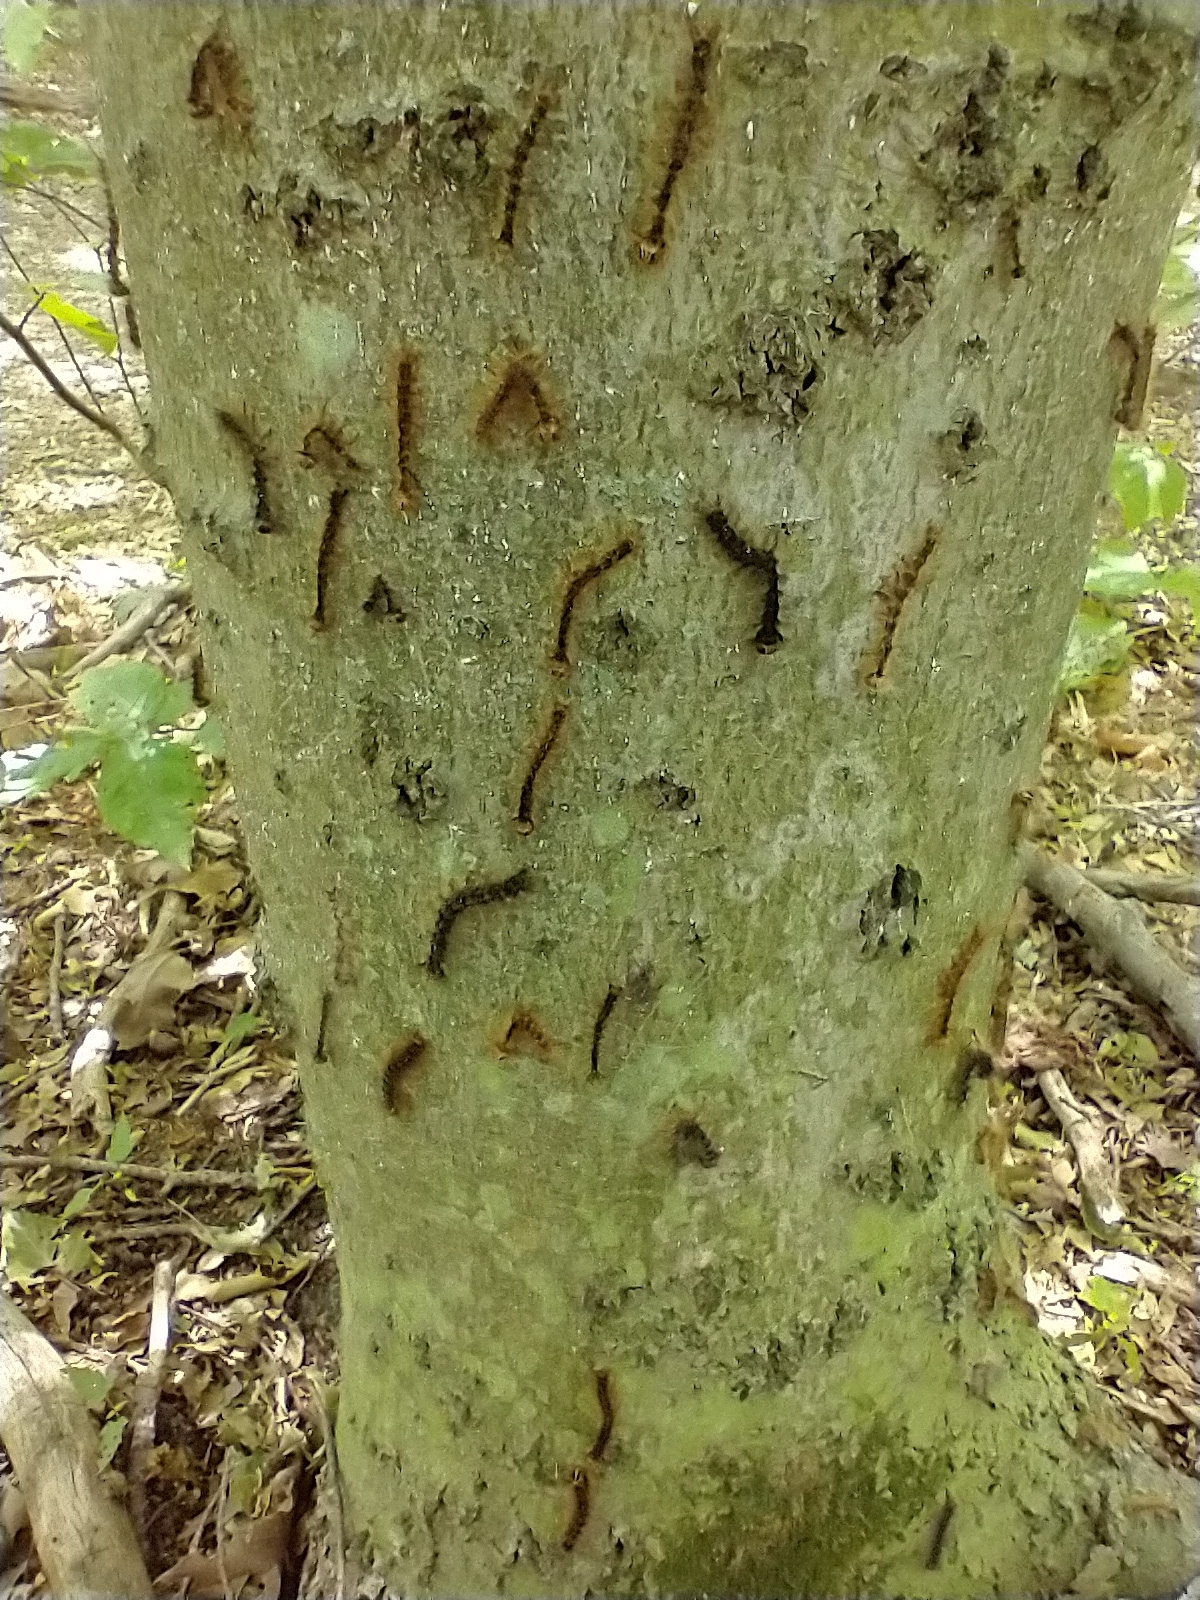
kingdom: Animalia
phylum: Arthropoda
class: Insecta
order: Lepidoptera
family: Erebidae
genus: Lymantria
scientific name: Lymantria dispar
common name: Gypsy moth
